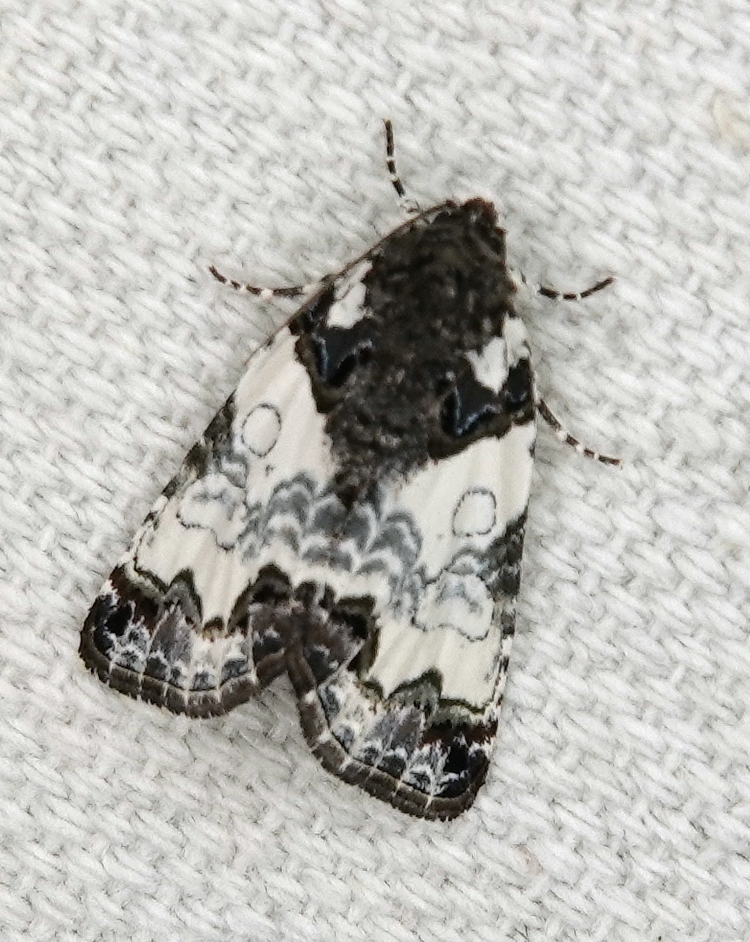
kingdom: Animalia
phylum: Arthropoda
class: Insecta
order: Lepidoptera
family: Noctuidae
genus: Cerma
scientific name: Cerma cerintha
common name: Tufted bird-dropping moth
